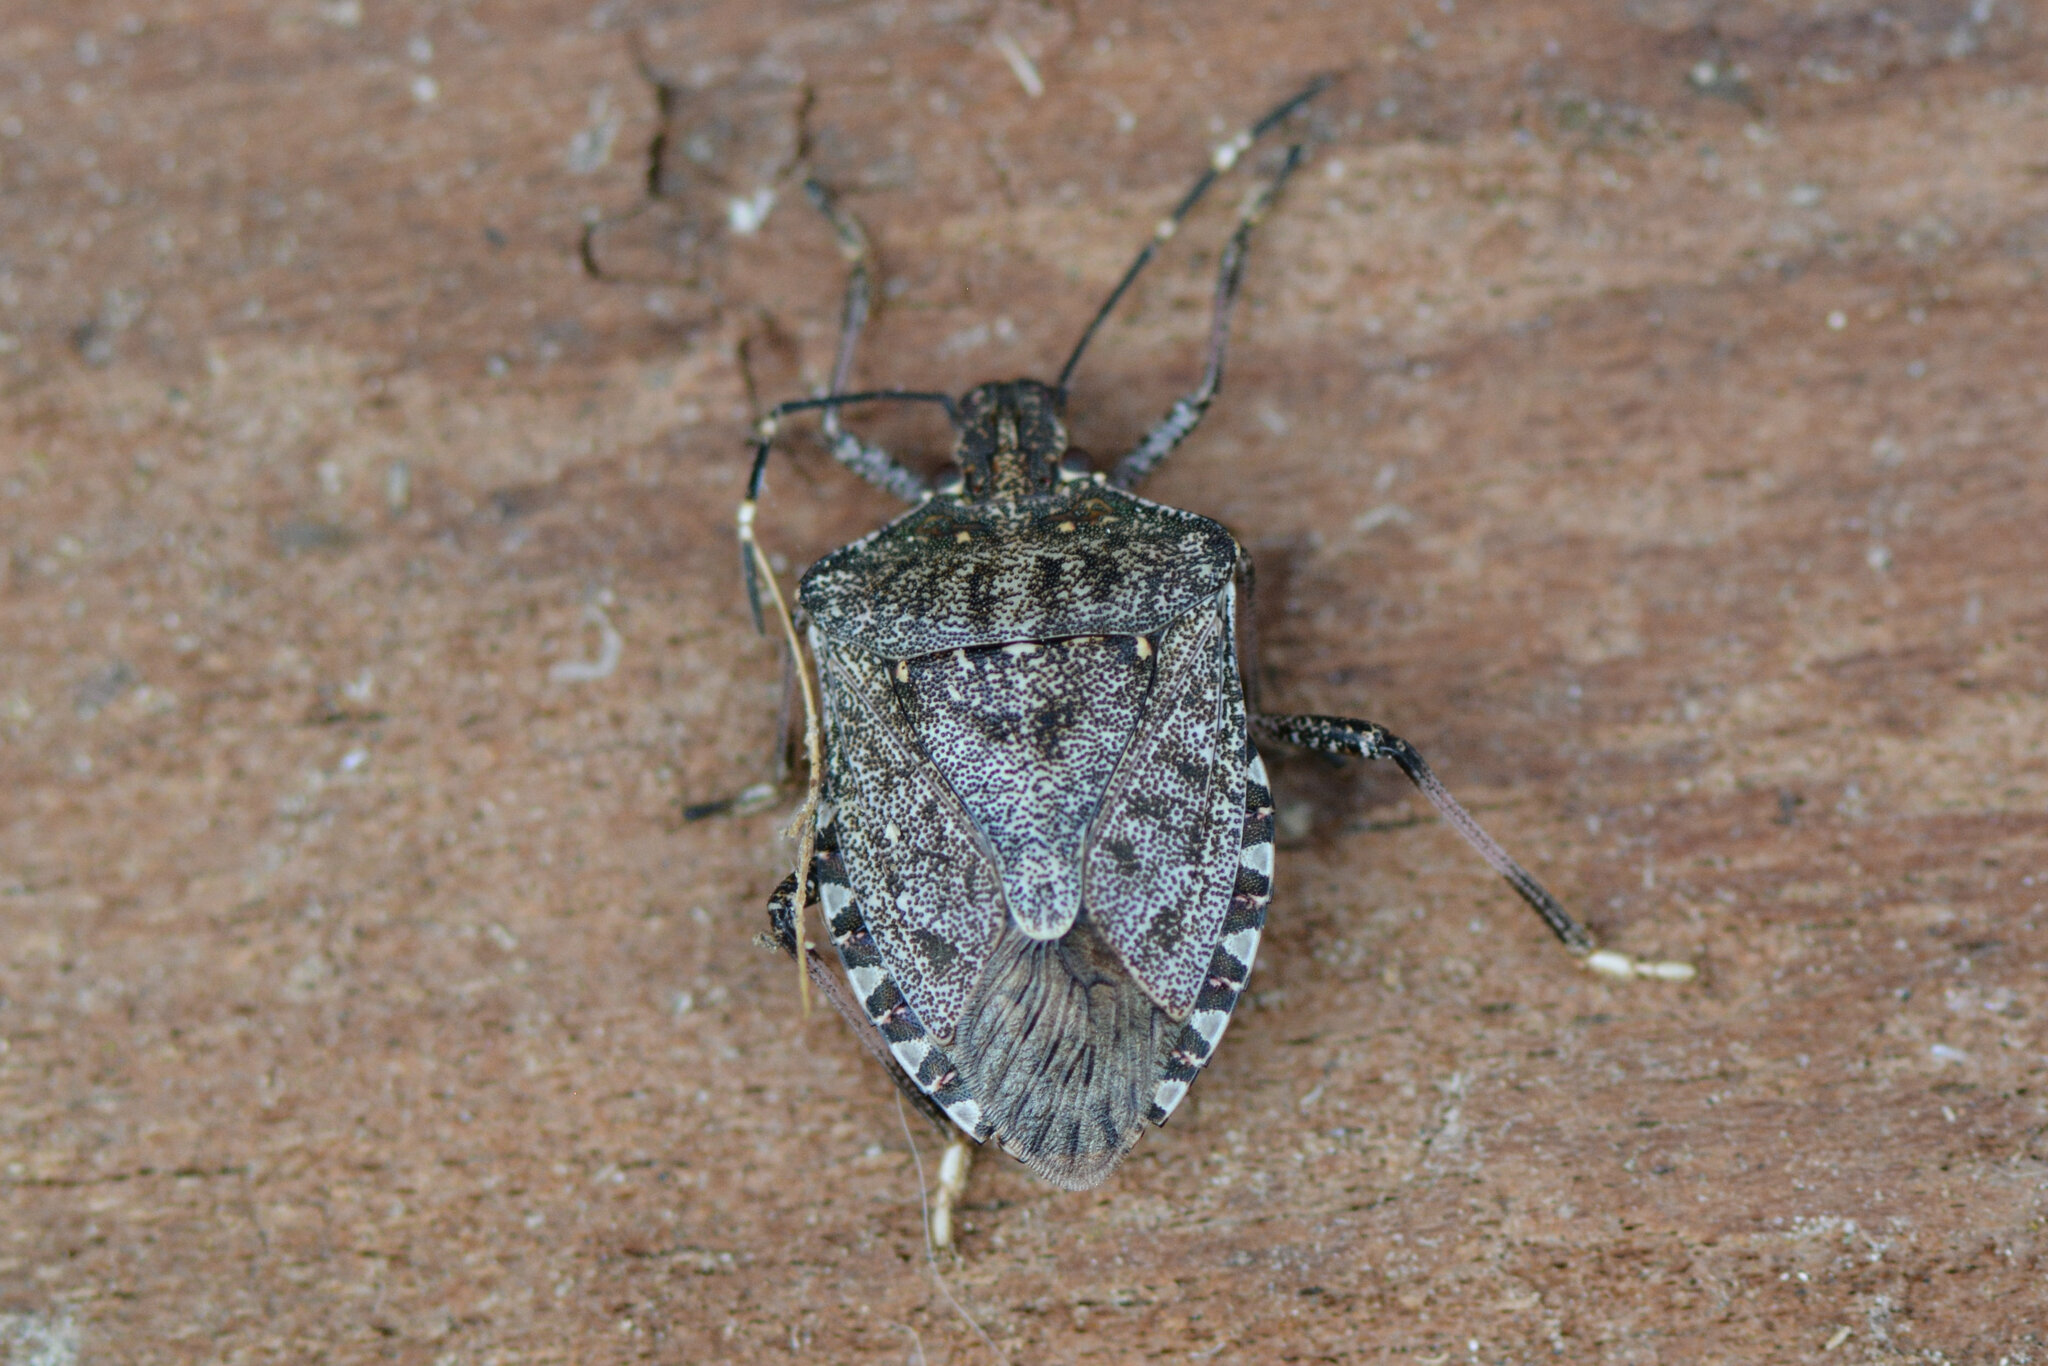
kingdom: Animalia
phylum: Arthropoda
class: Insecta
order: Hemiptera
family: Pentatomidae
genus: Halyomorpha
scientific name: Halyomorpha halys
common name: Brown marmorated stink bug
